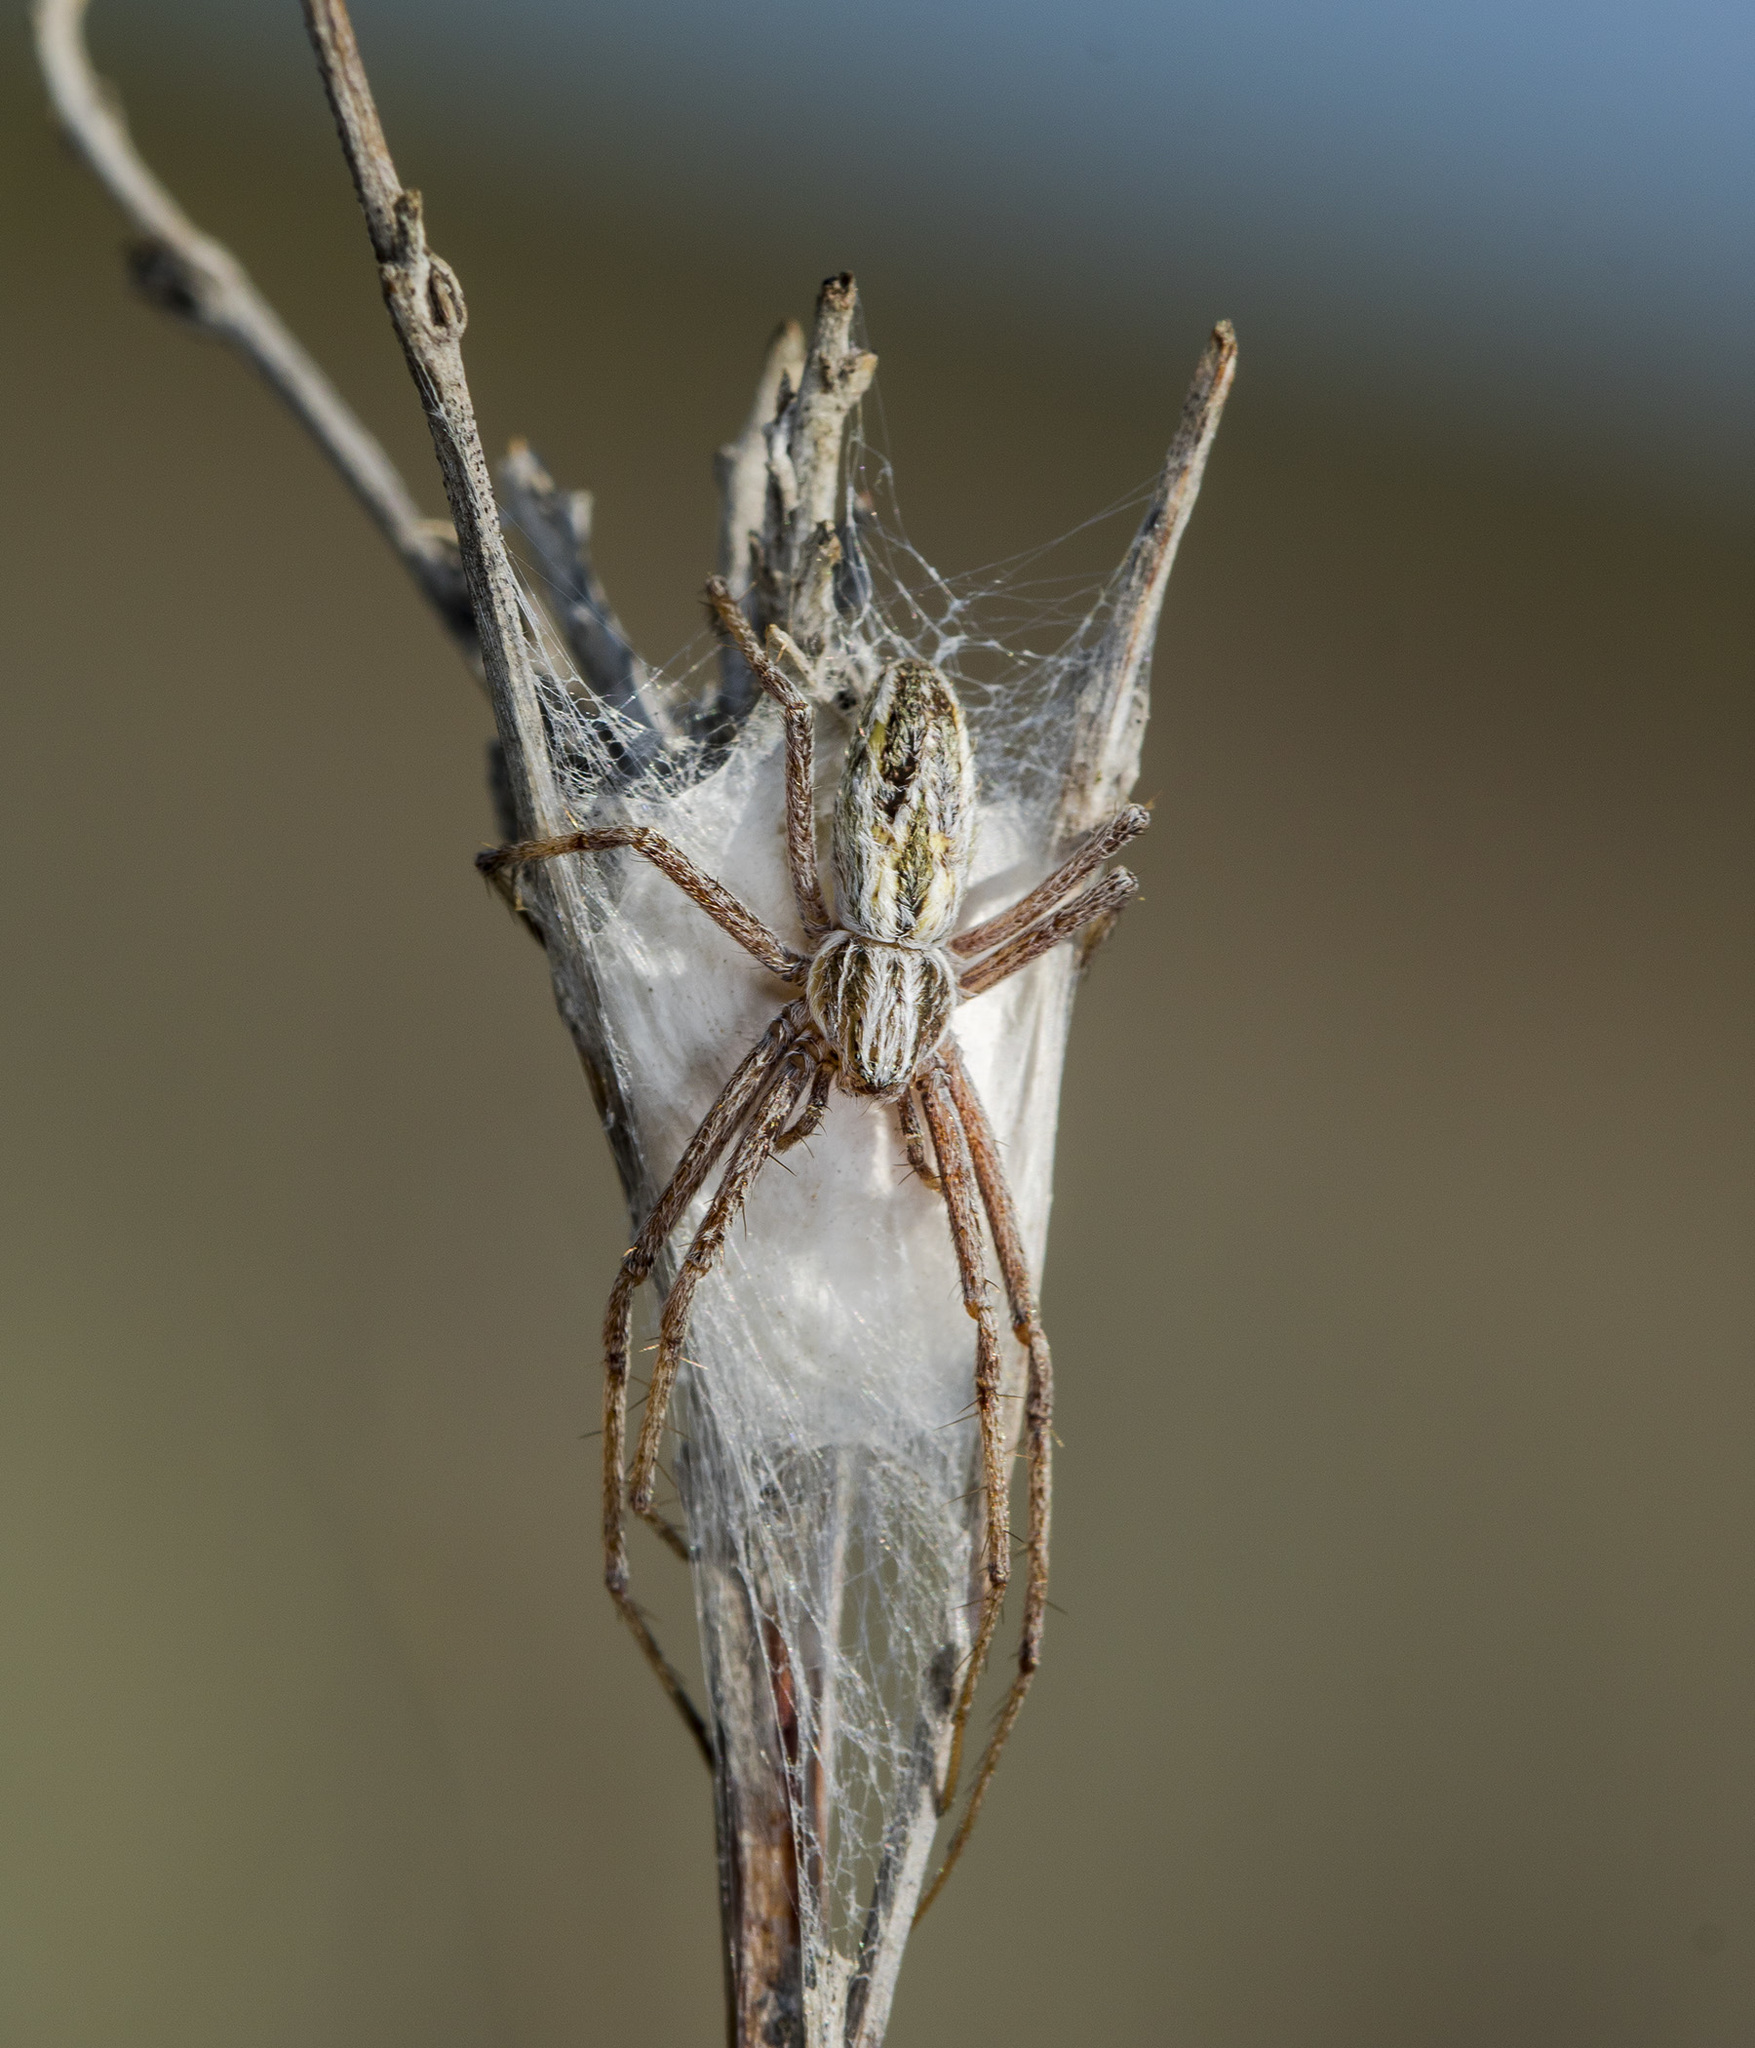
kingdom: Animalia
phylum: Arthropoda
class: Arachnida
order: Araneae
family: Philodromidae
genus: Thanatus
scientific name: Thanatus oblongiusculus
